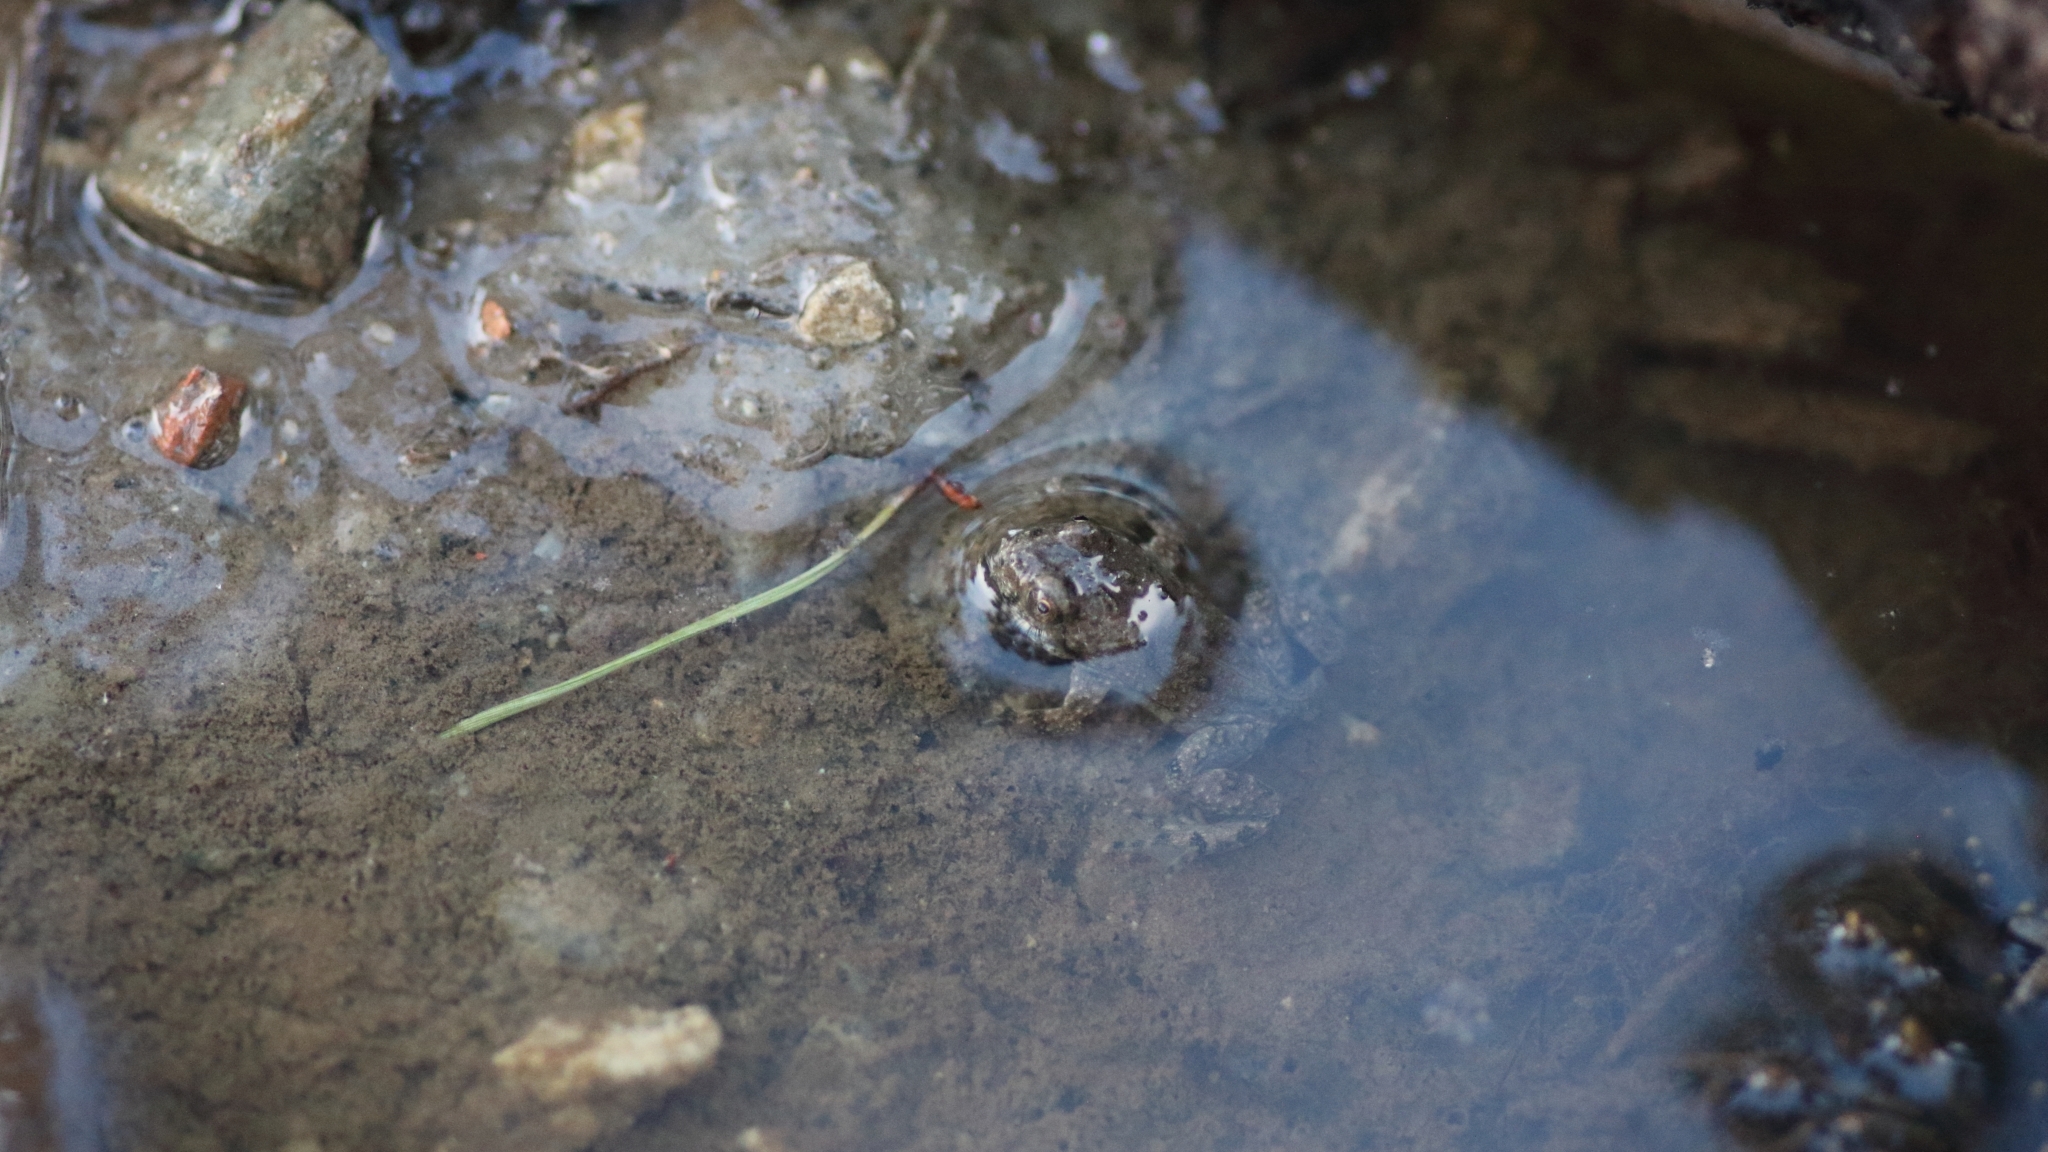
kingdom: Animalia
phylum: Chordata
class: Amphibia
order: Anura
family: Bombinatoridae
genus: Bombina
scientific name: Bombina variegata
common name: Yellow-bellied toad
